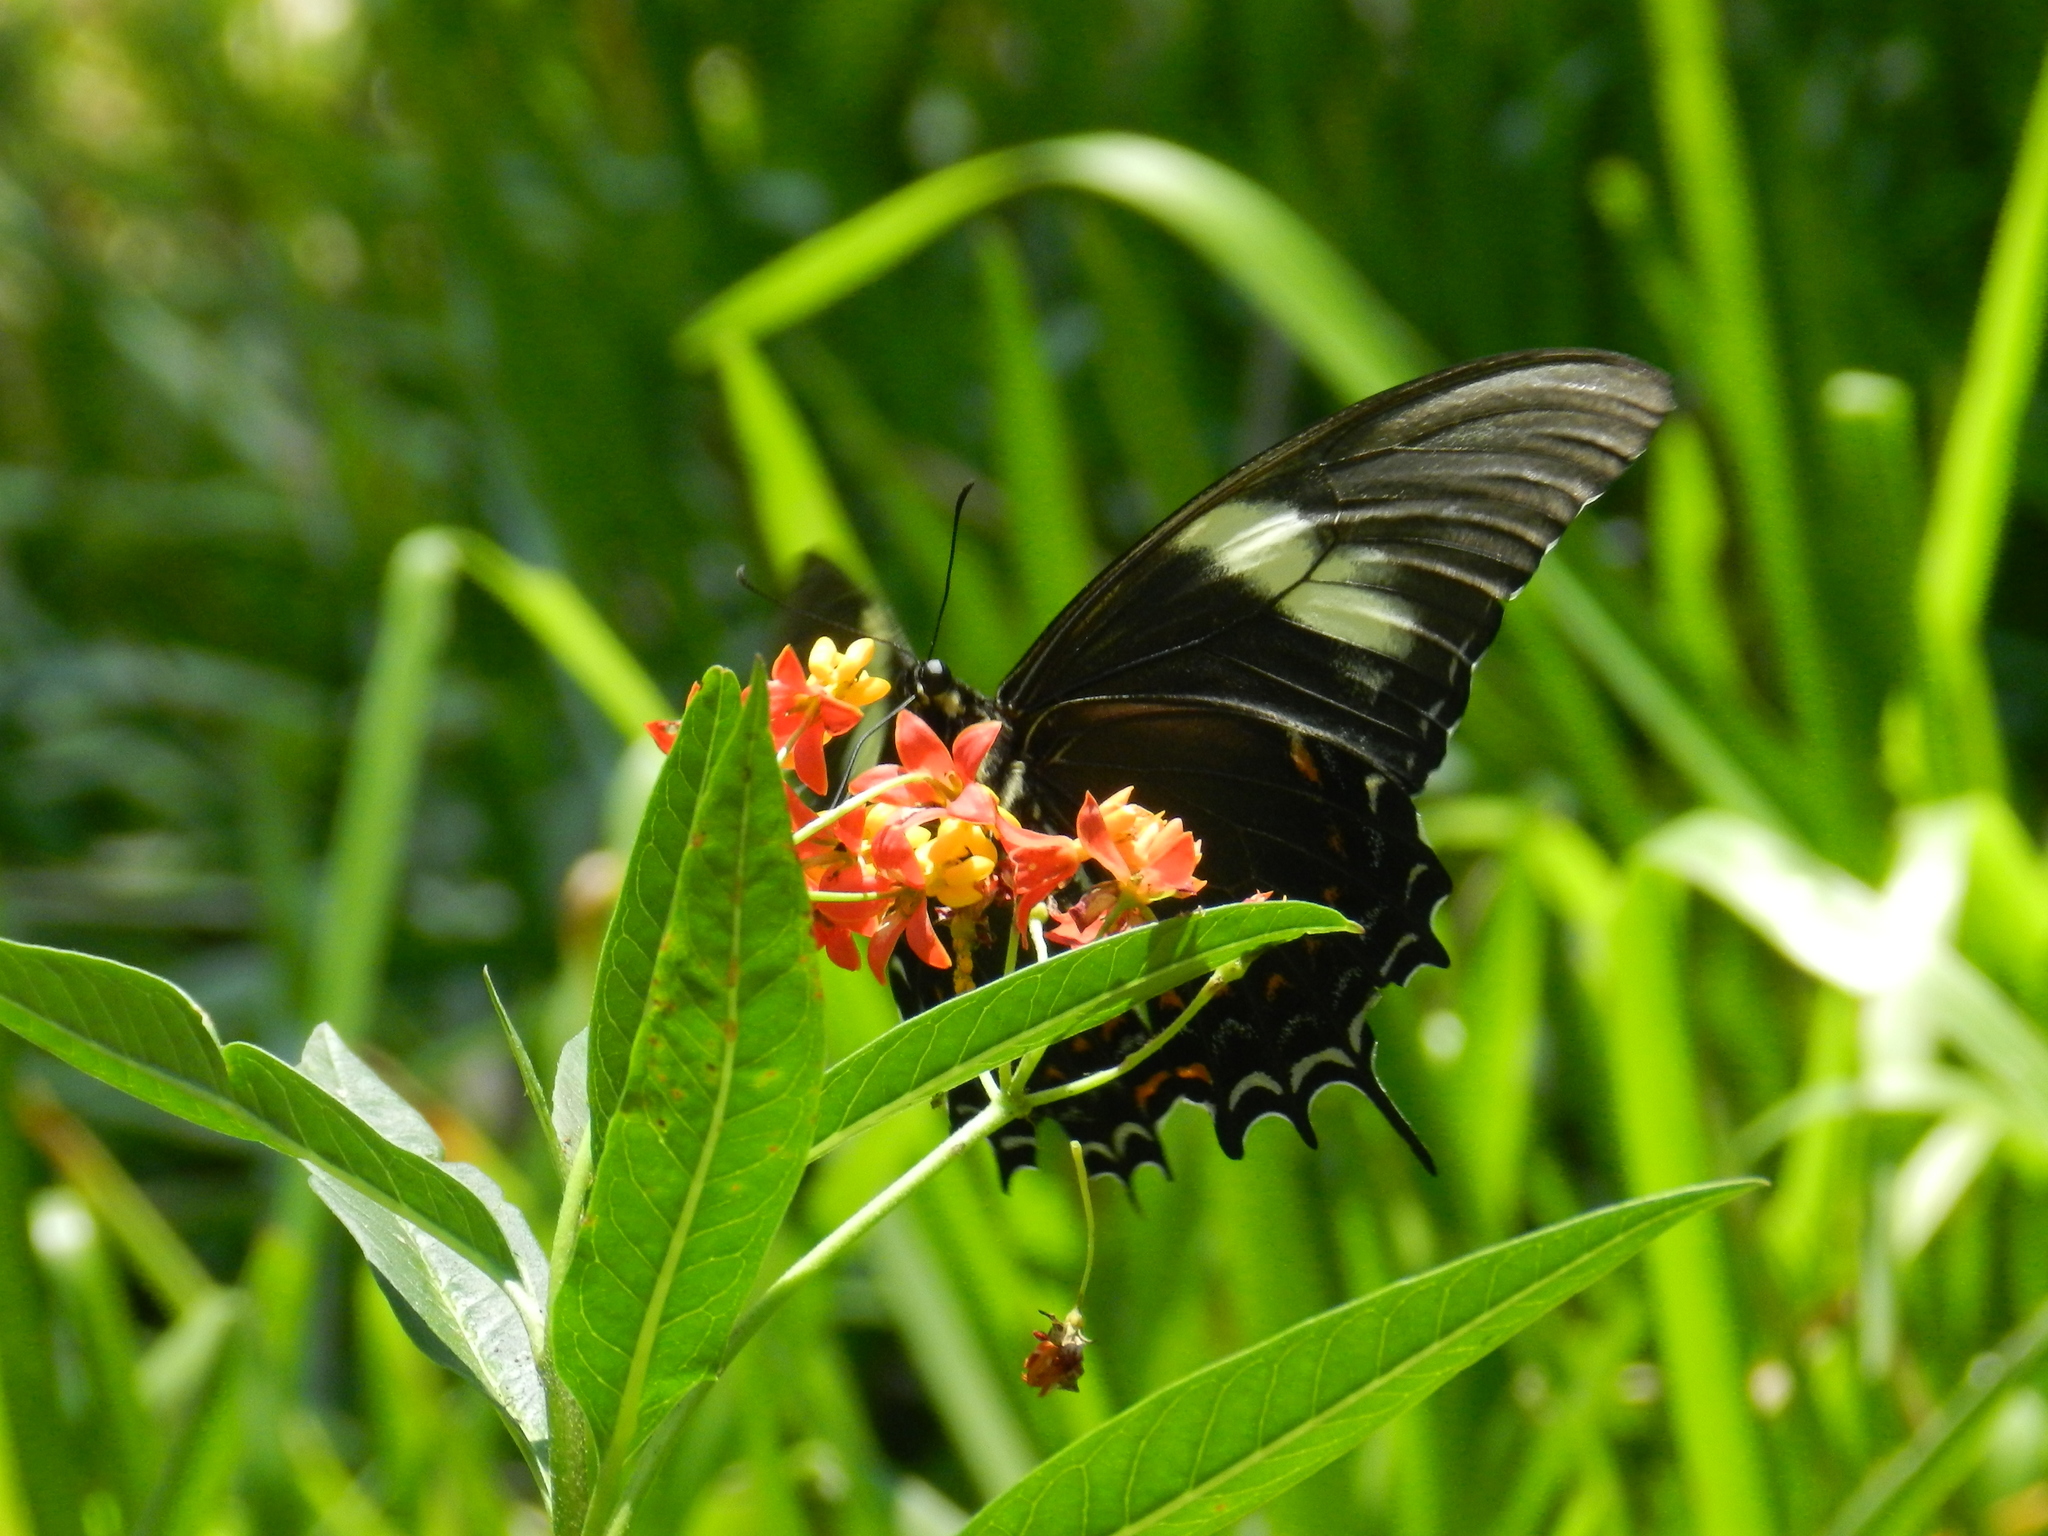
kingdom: Animalia
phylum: Arthropoda
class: Insecta
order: Lepidoptera
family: Papilionidae
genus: Papilio
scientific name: Papilio androgeus
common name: Androgeus swallowtail
